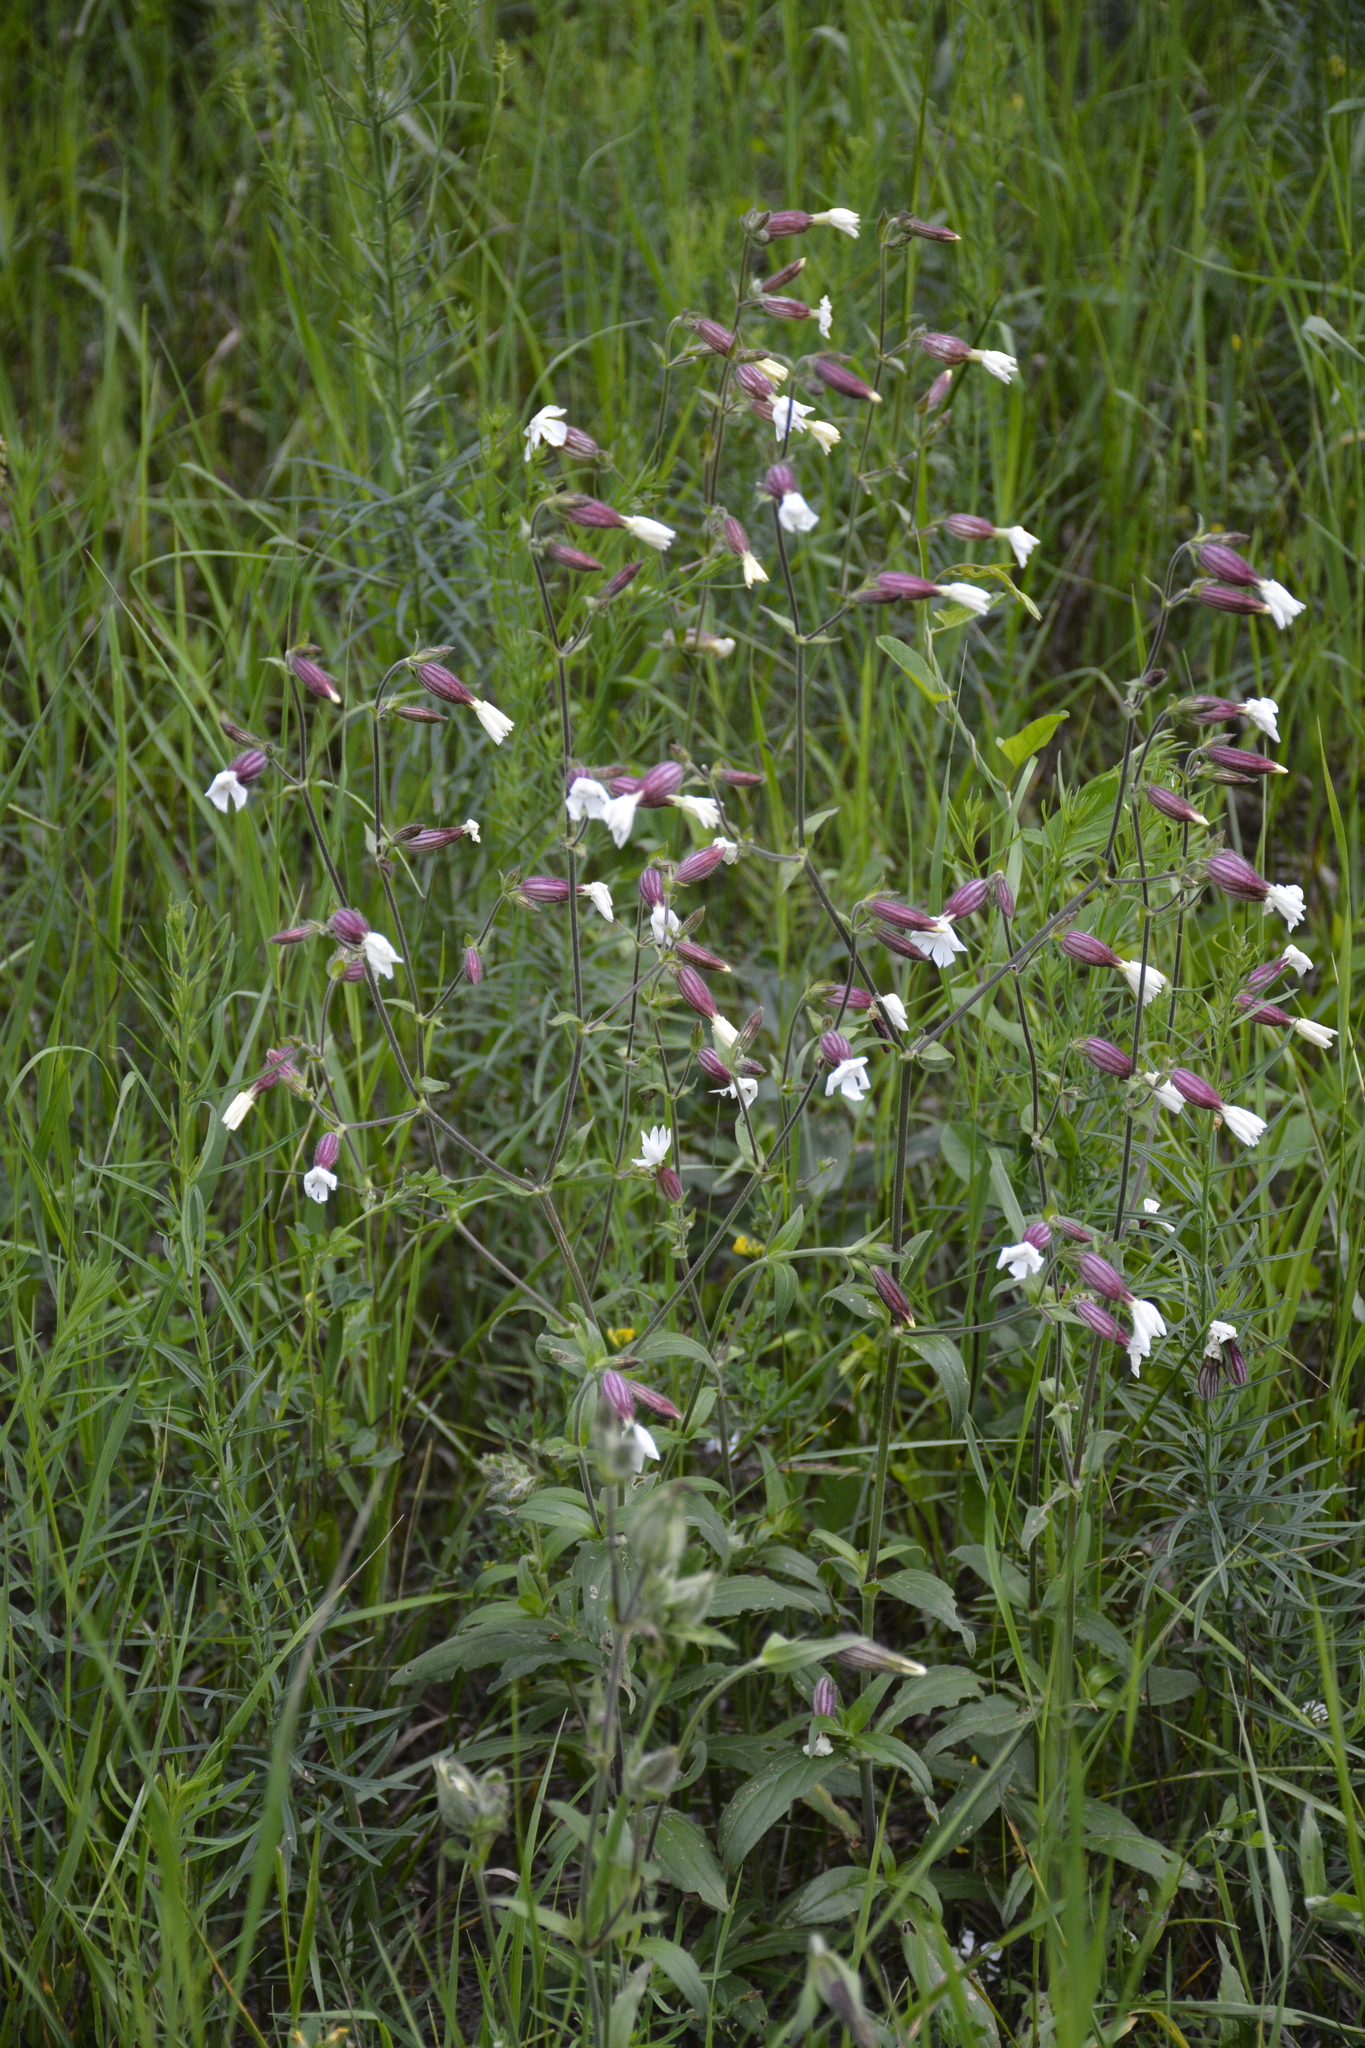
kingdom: Plantae
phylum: Tracheophyta
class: Magnoliopsida
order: Caryophyllales
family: Caryophyllaceae
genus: Silene
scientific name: Silene latifolia
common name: White campion
